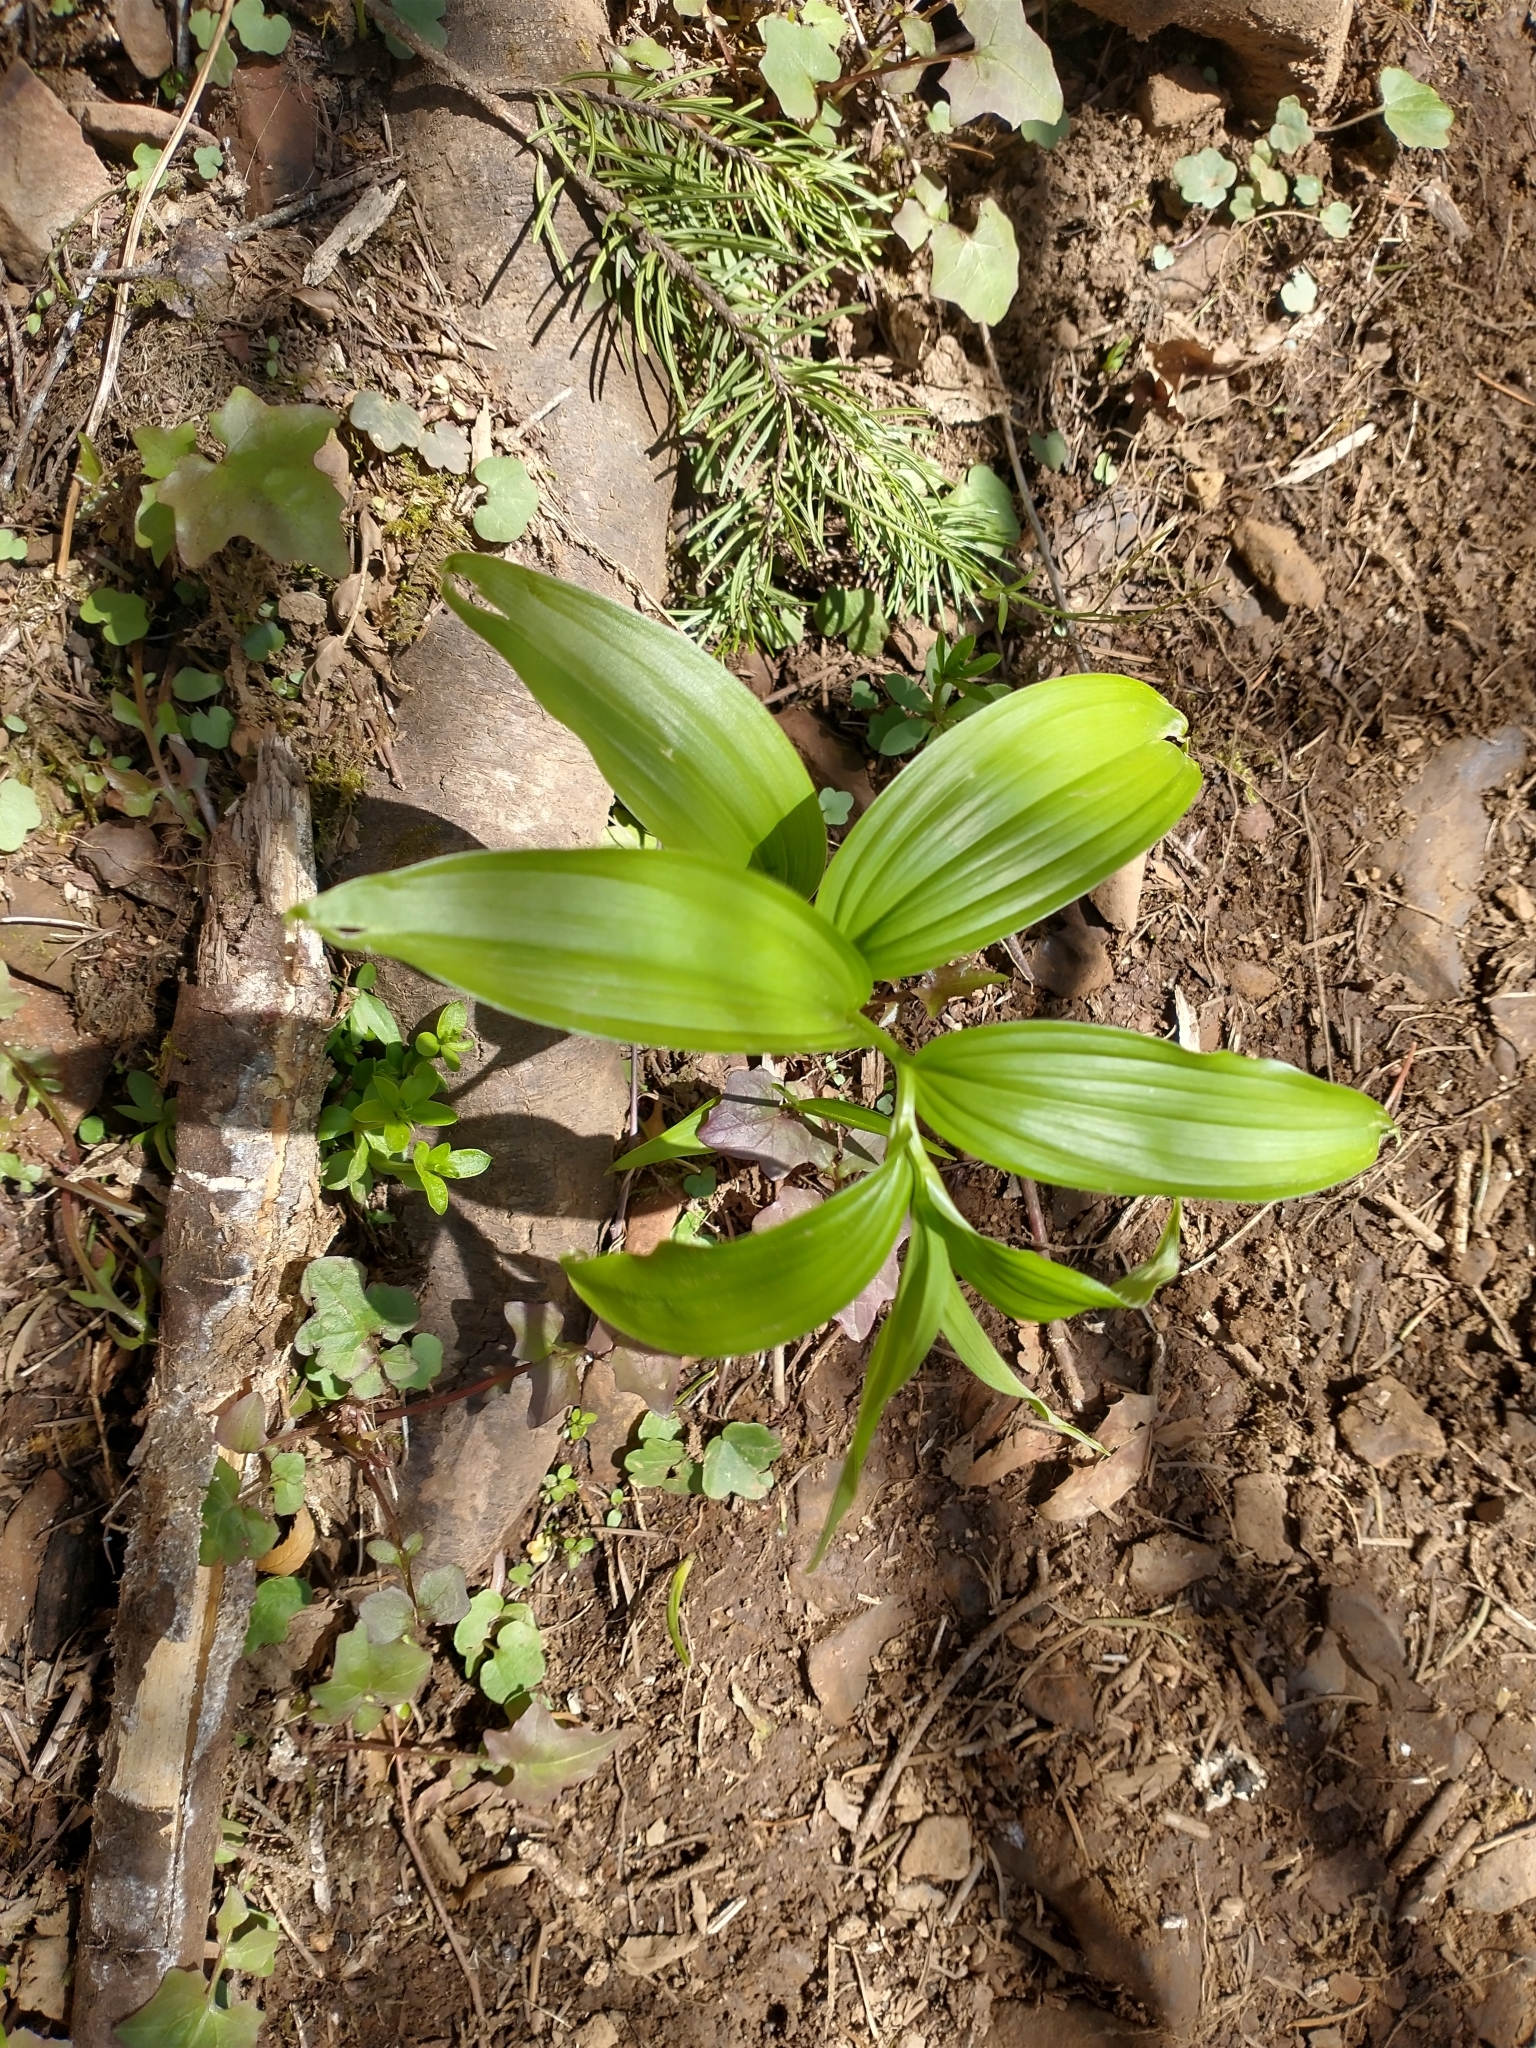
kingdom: Plantae
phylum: Tracheophyta
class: Liliopsida
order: Asparagales
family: Asparagaceae
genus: Maianthemum
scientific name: Maianthemum racemosum
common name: False spikenard
